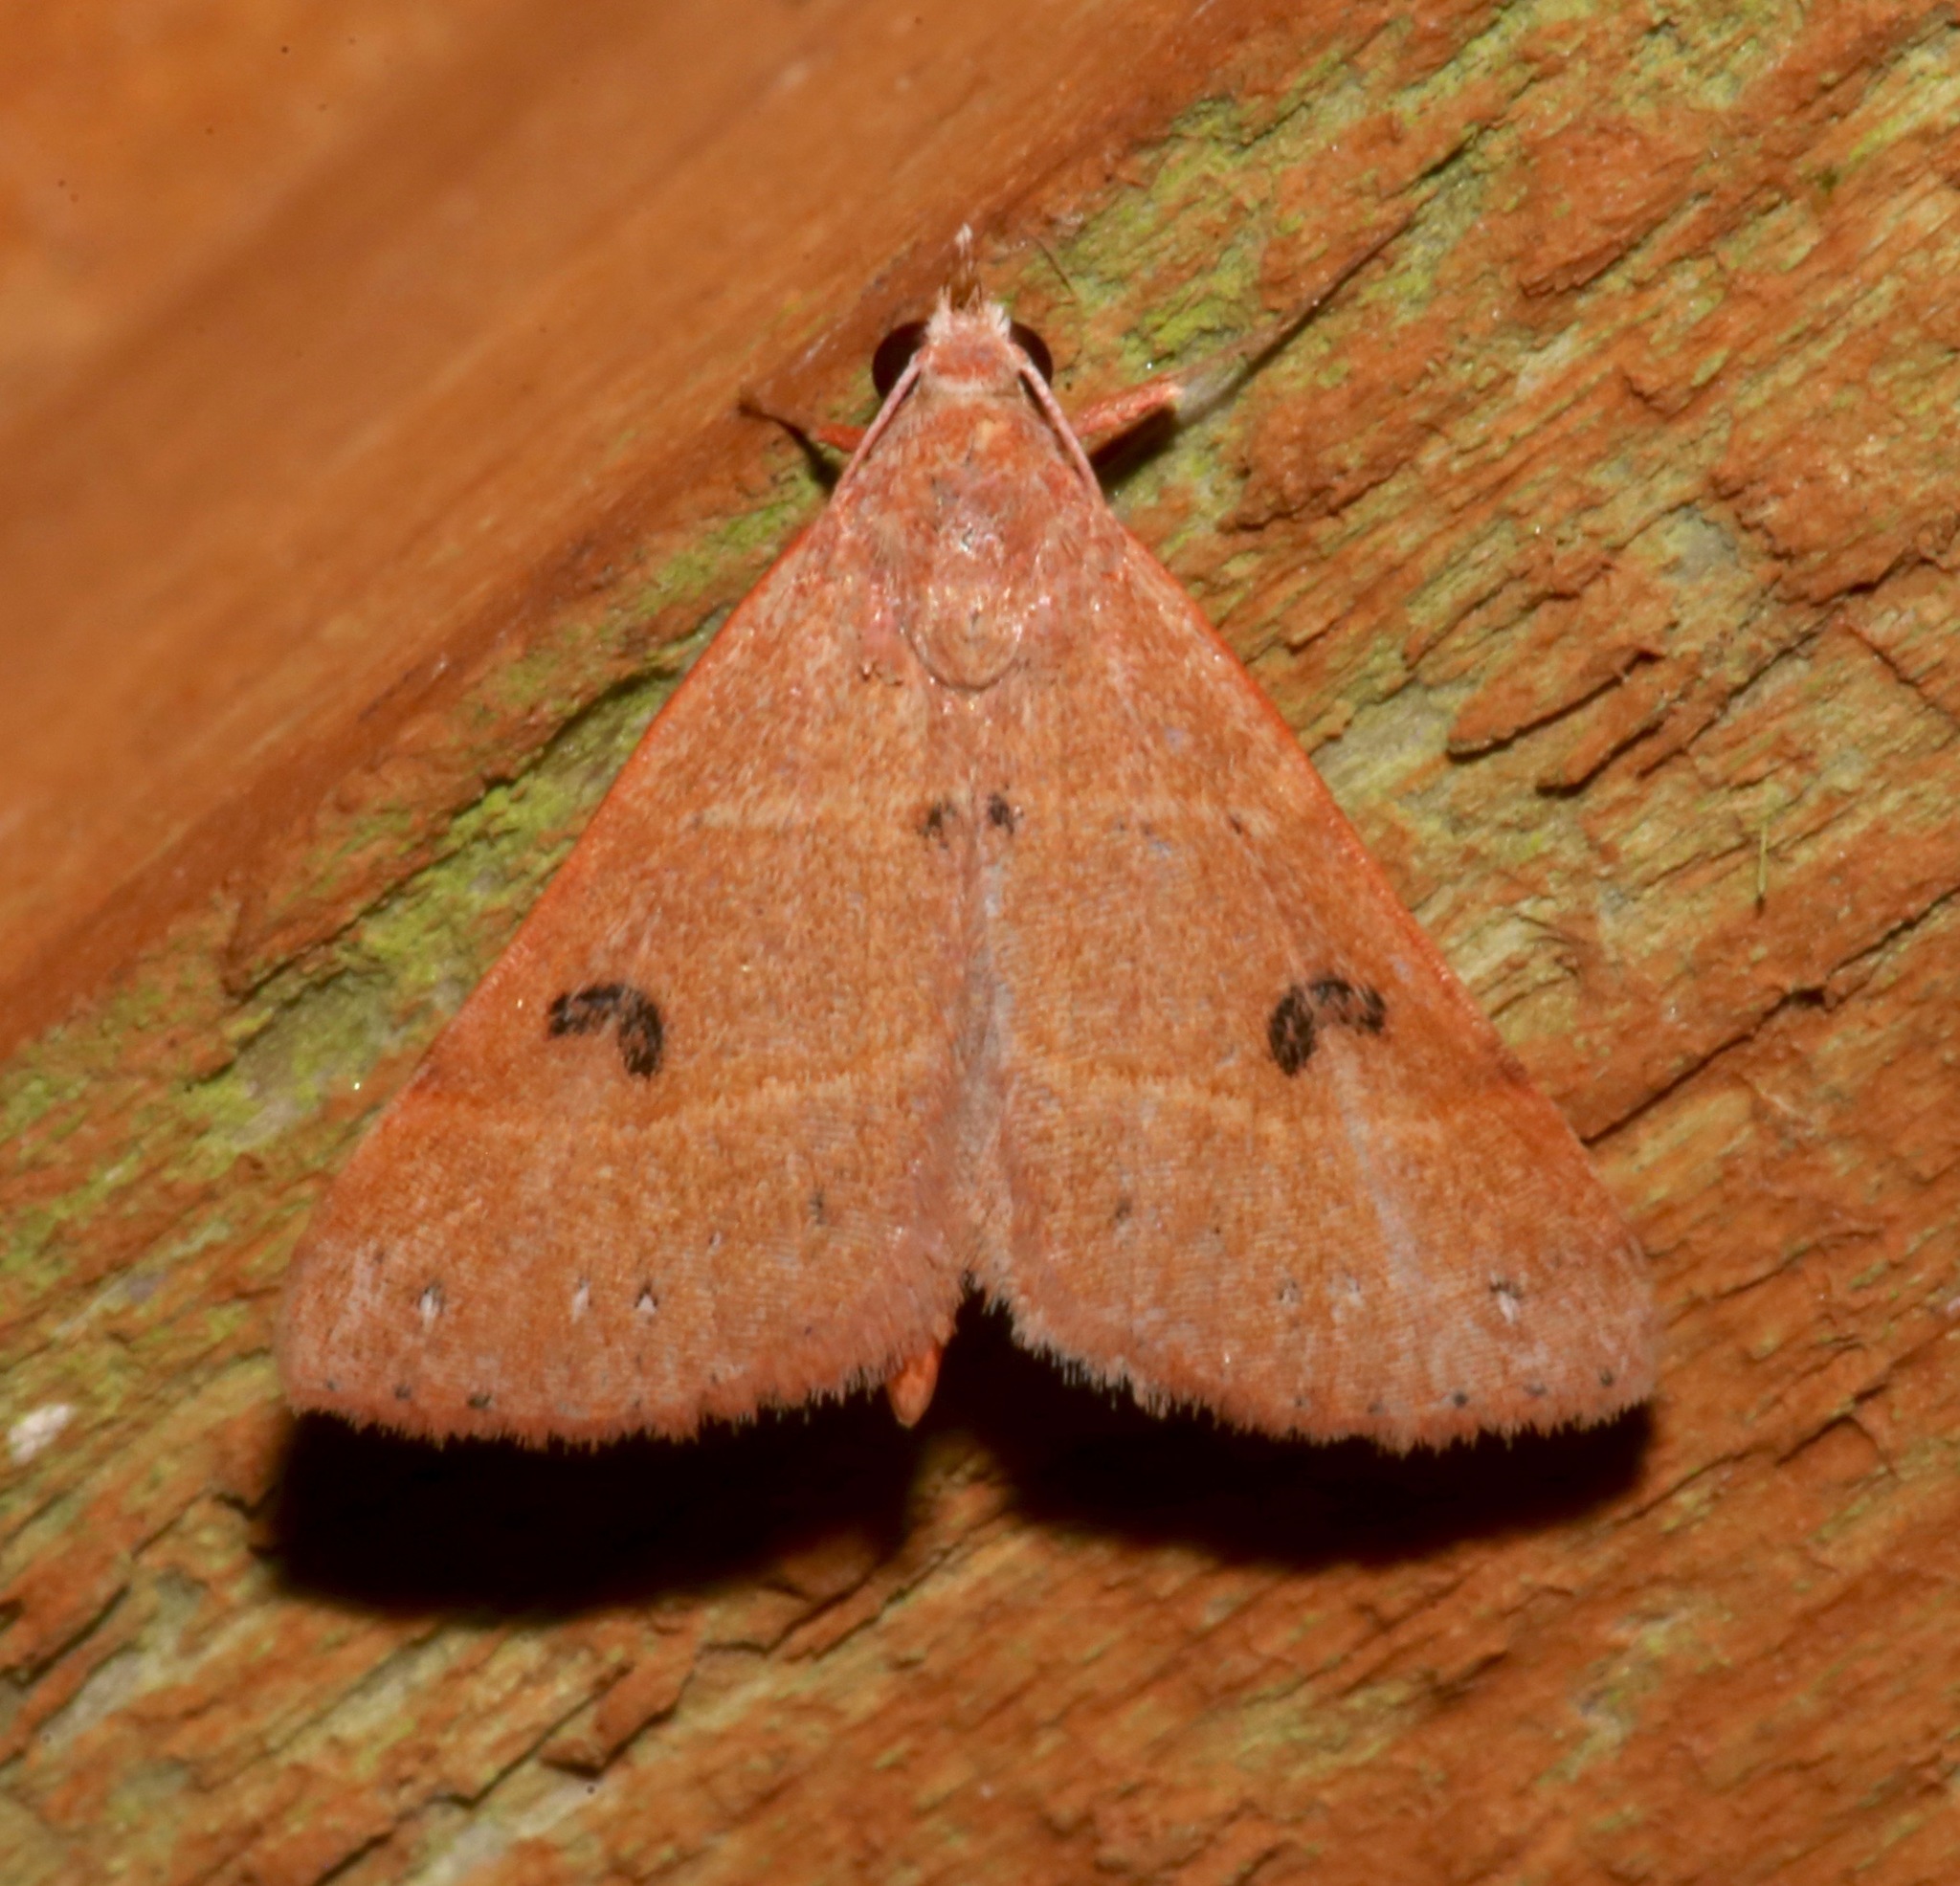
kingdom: Animalia
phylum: Arthropoda
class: Insecta
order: Lepidoptera
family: Erebidae
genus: Hemeroplanis
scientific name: Hemeroplanis habitalis
